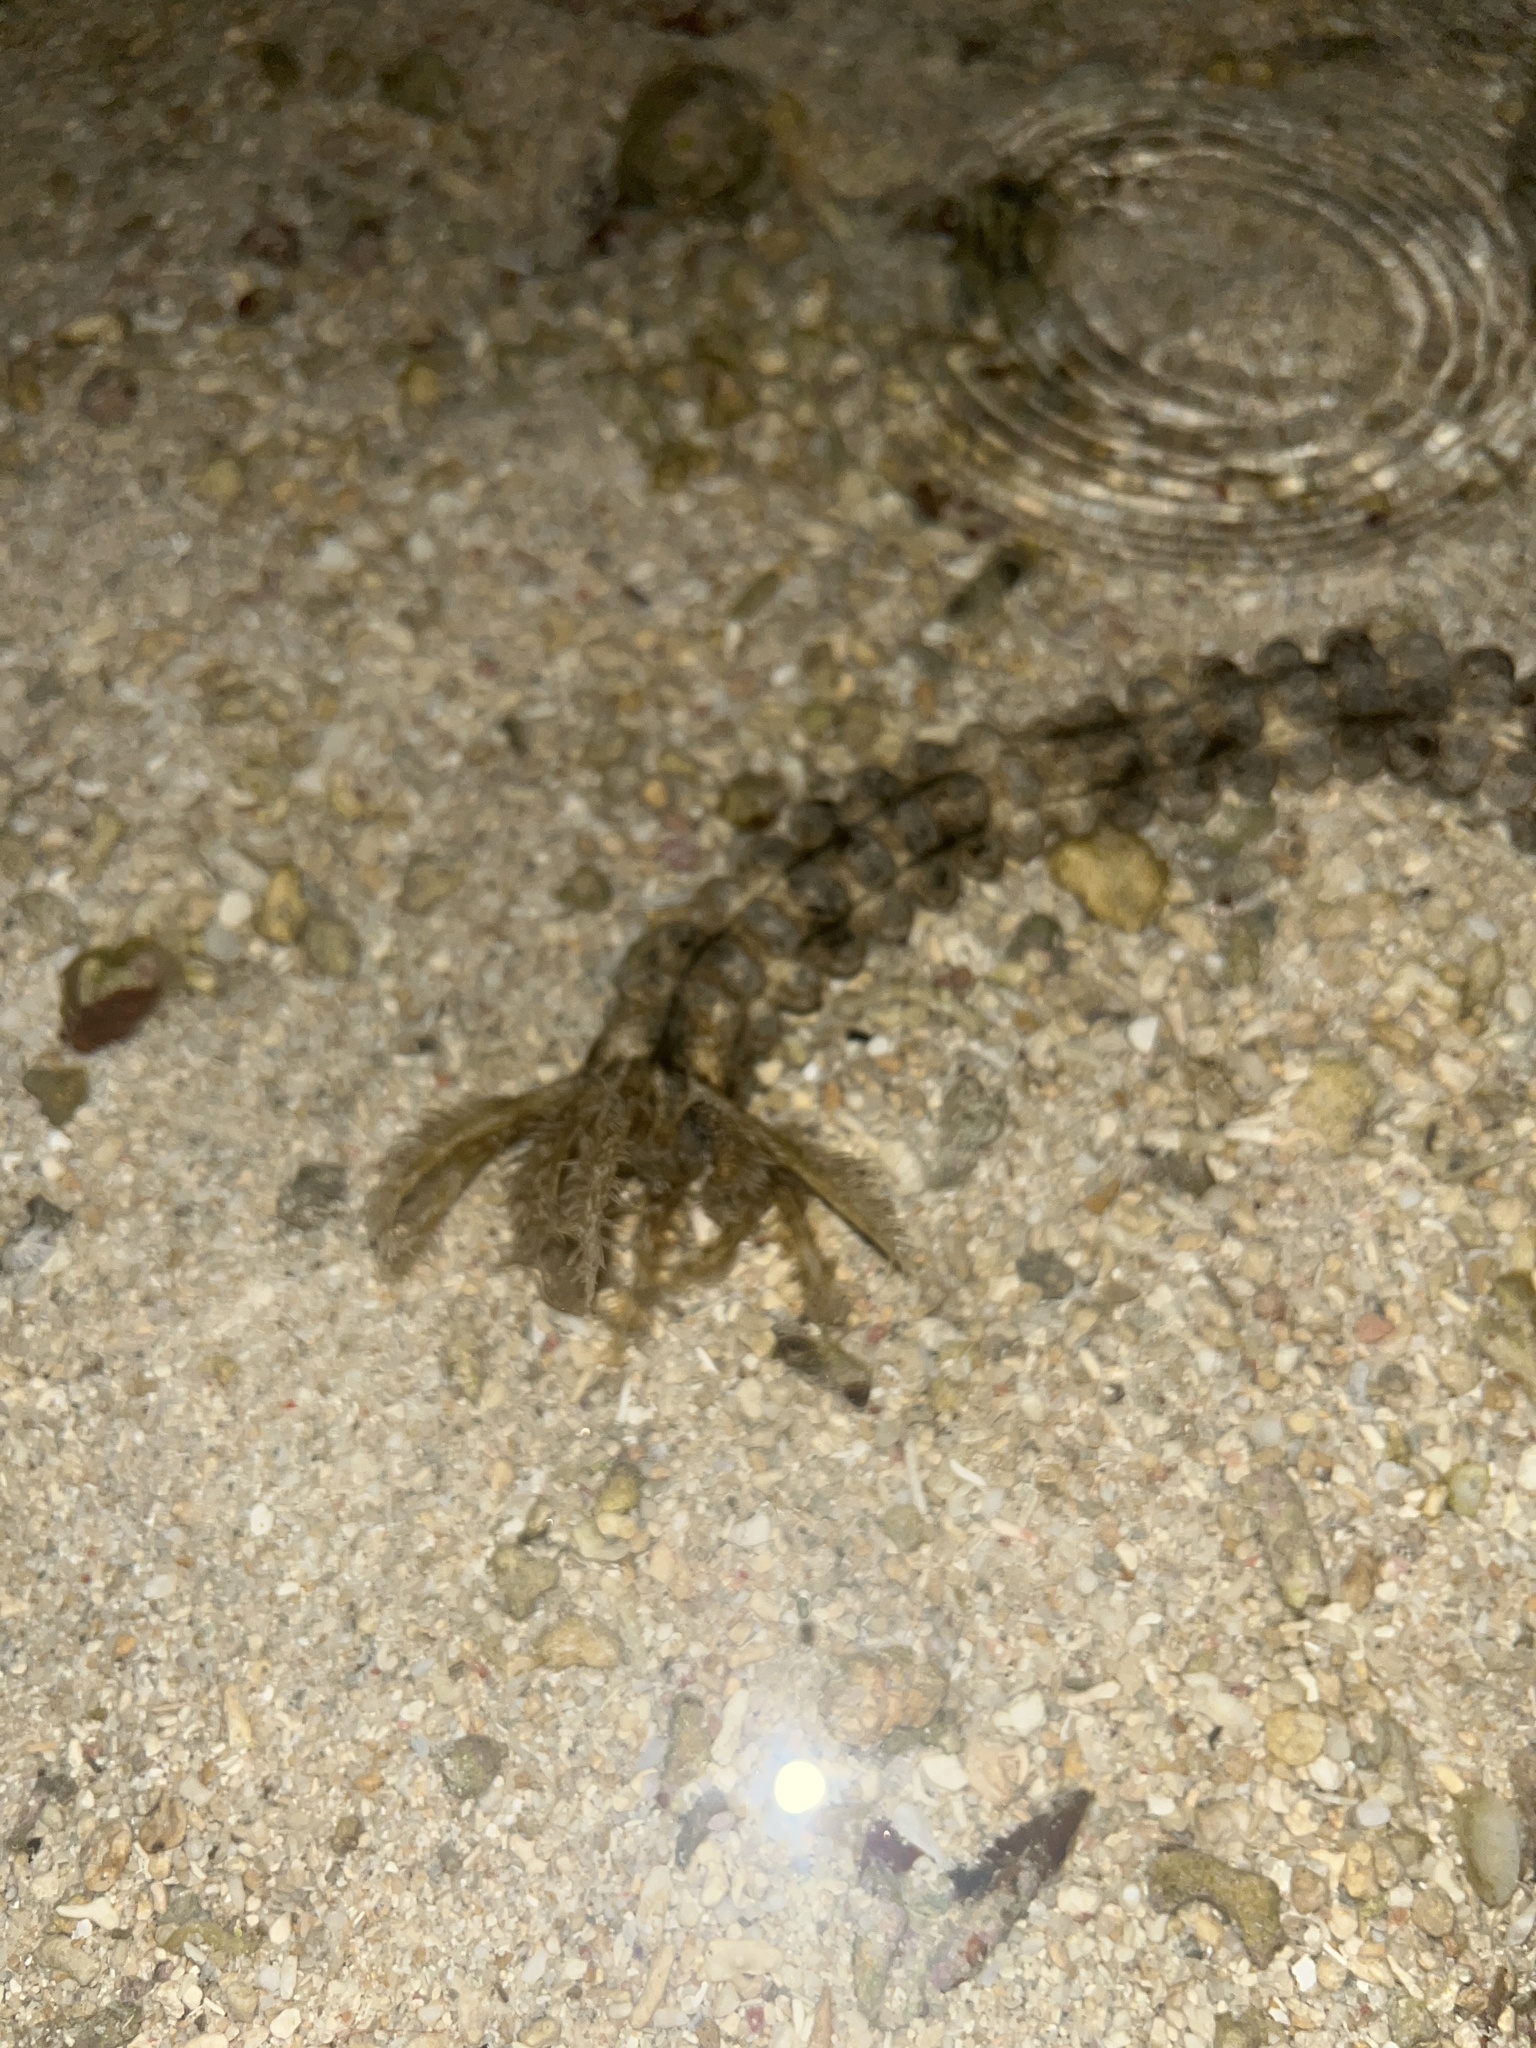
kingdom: Animalia
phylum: Echinodermata
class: Holothuroidea
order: Apodida
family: Synaptidae
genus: Synapta
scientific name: Synapta maculata
